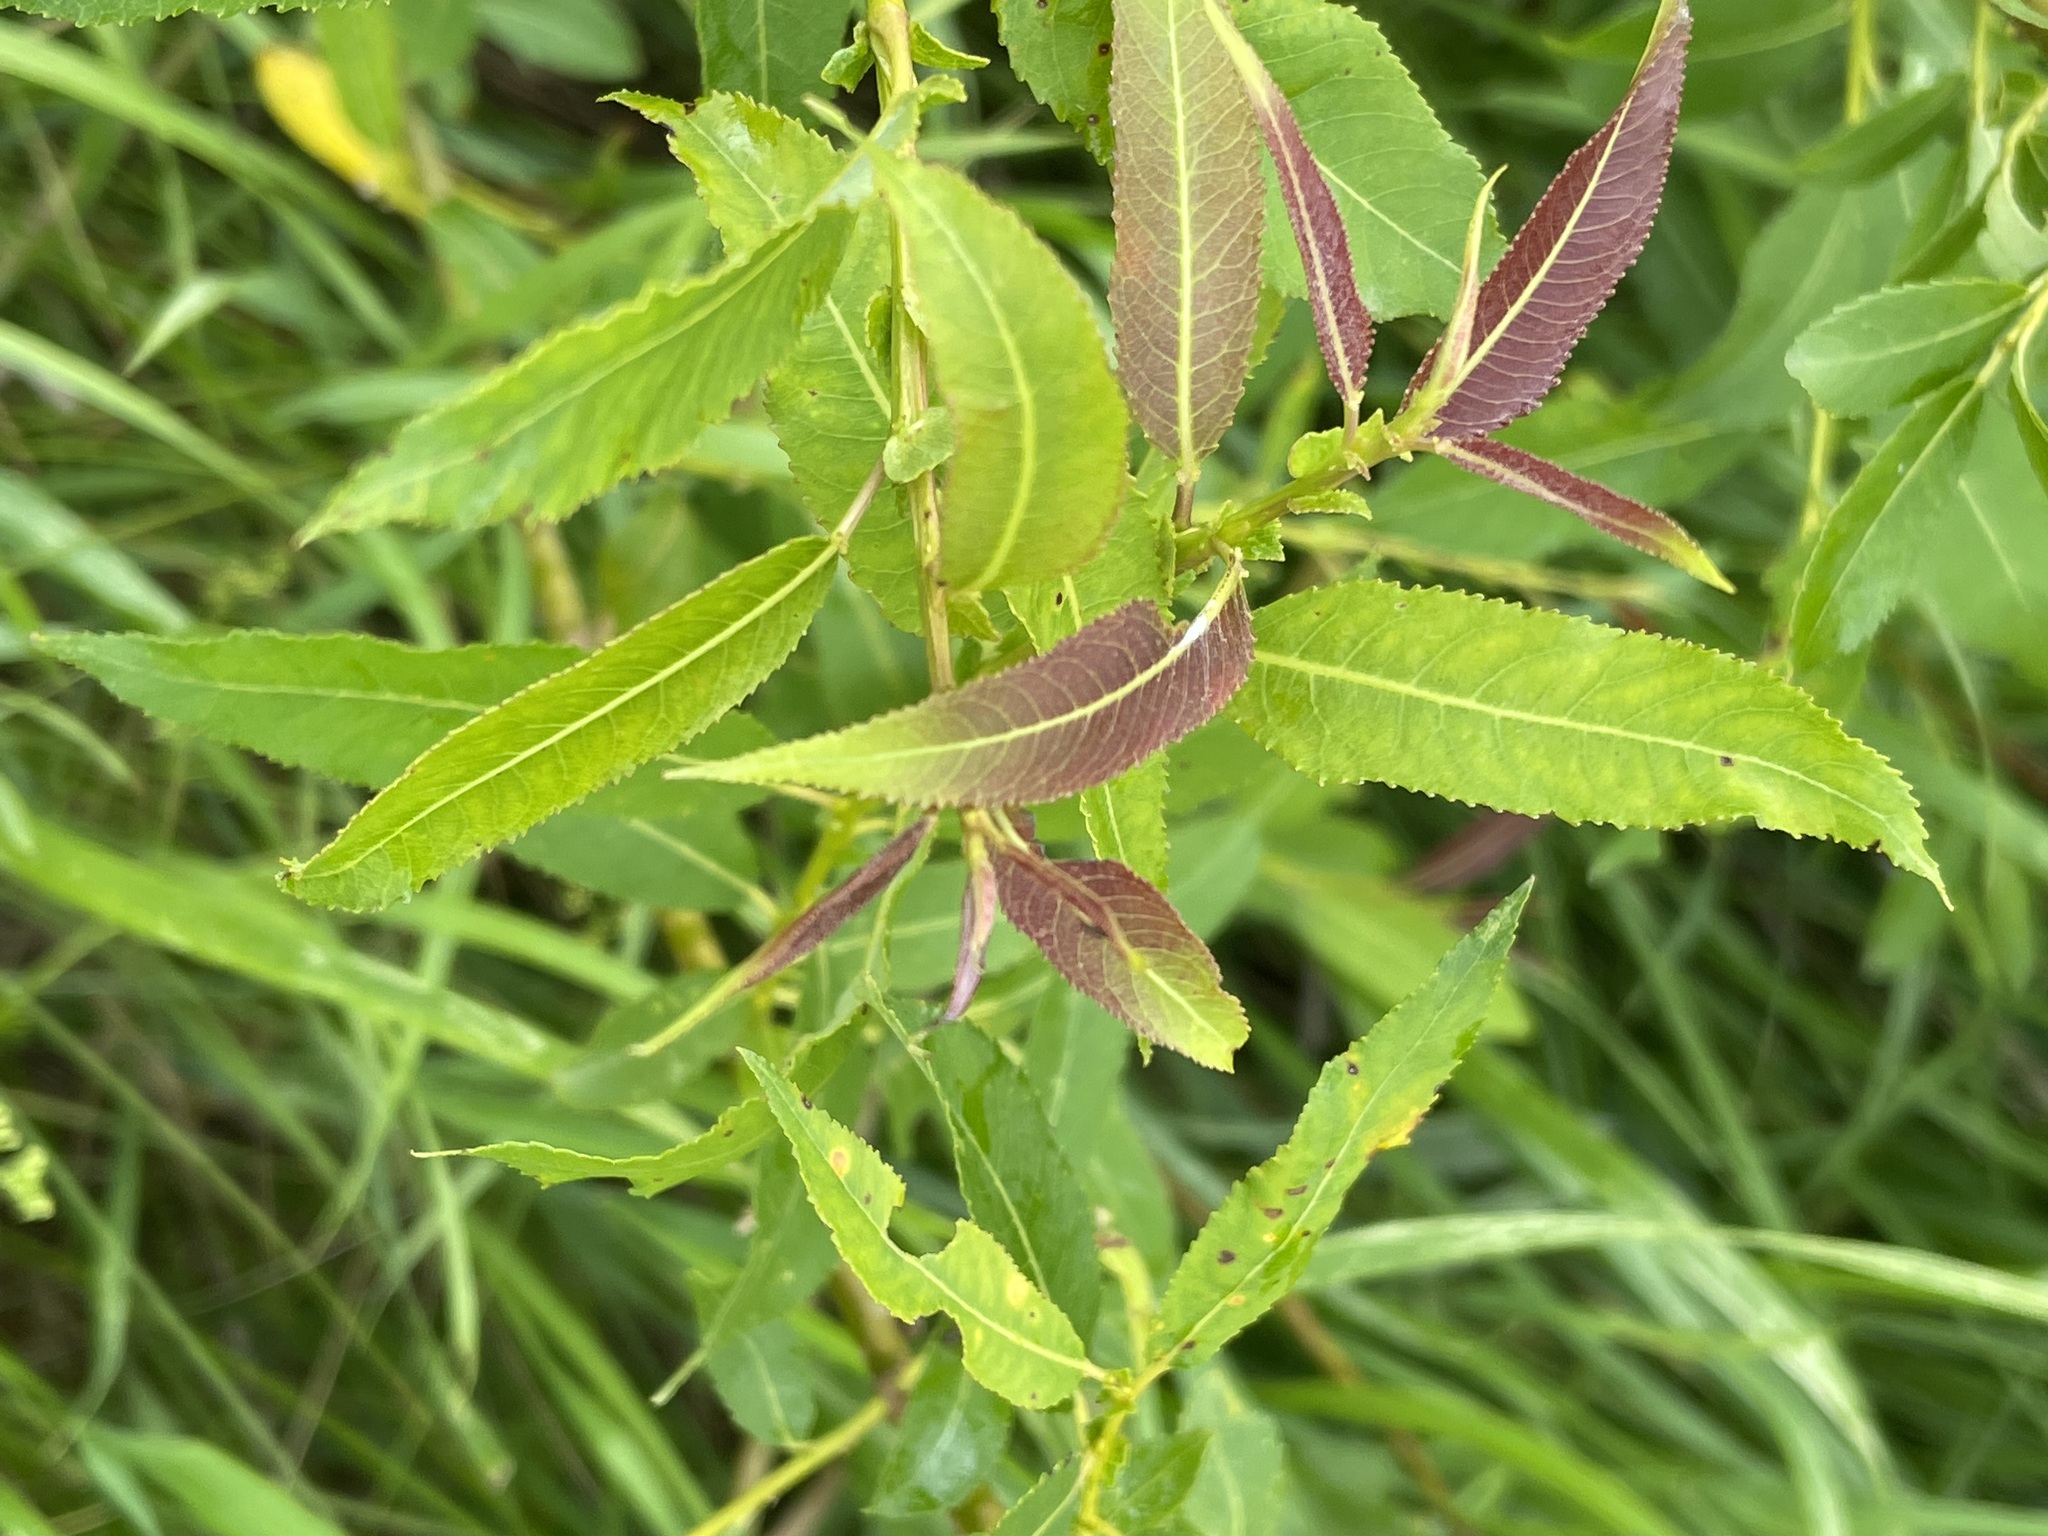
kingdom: Plantae
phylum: Tracheophyta
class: Magnoliopsida
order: Malpighiales
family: Salicaceae
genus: Salix
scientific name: Salix triandra
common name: Almond willow
